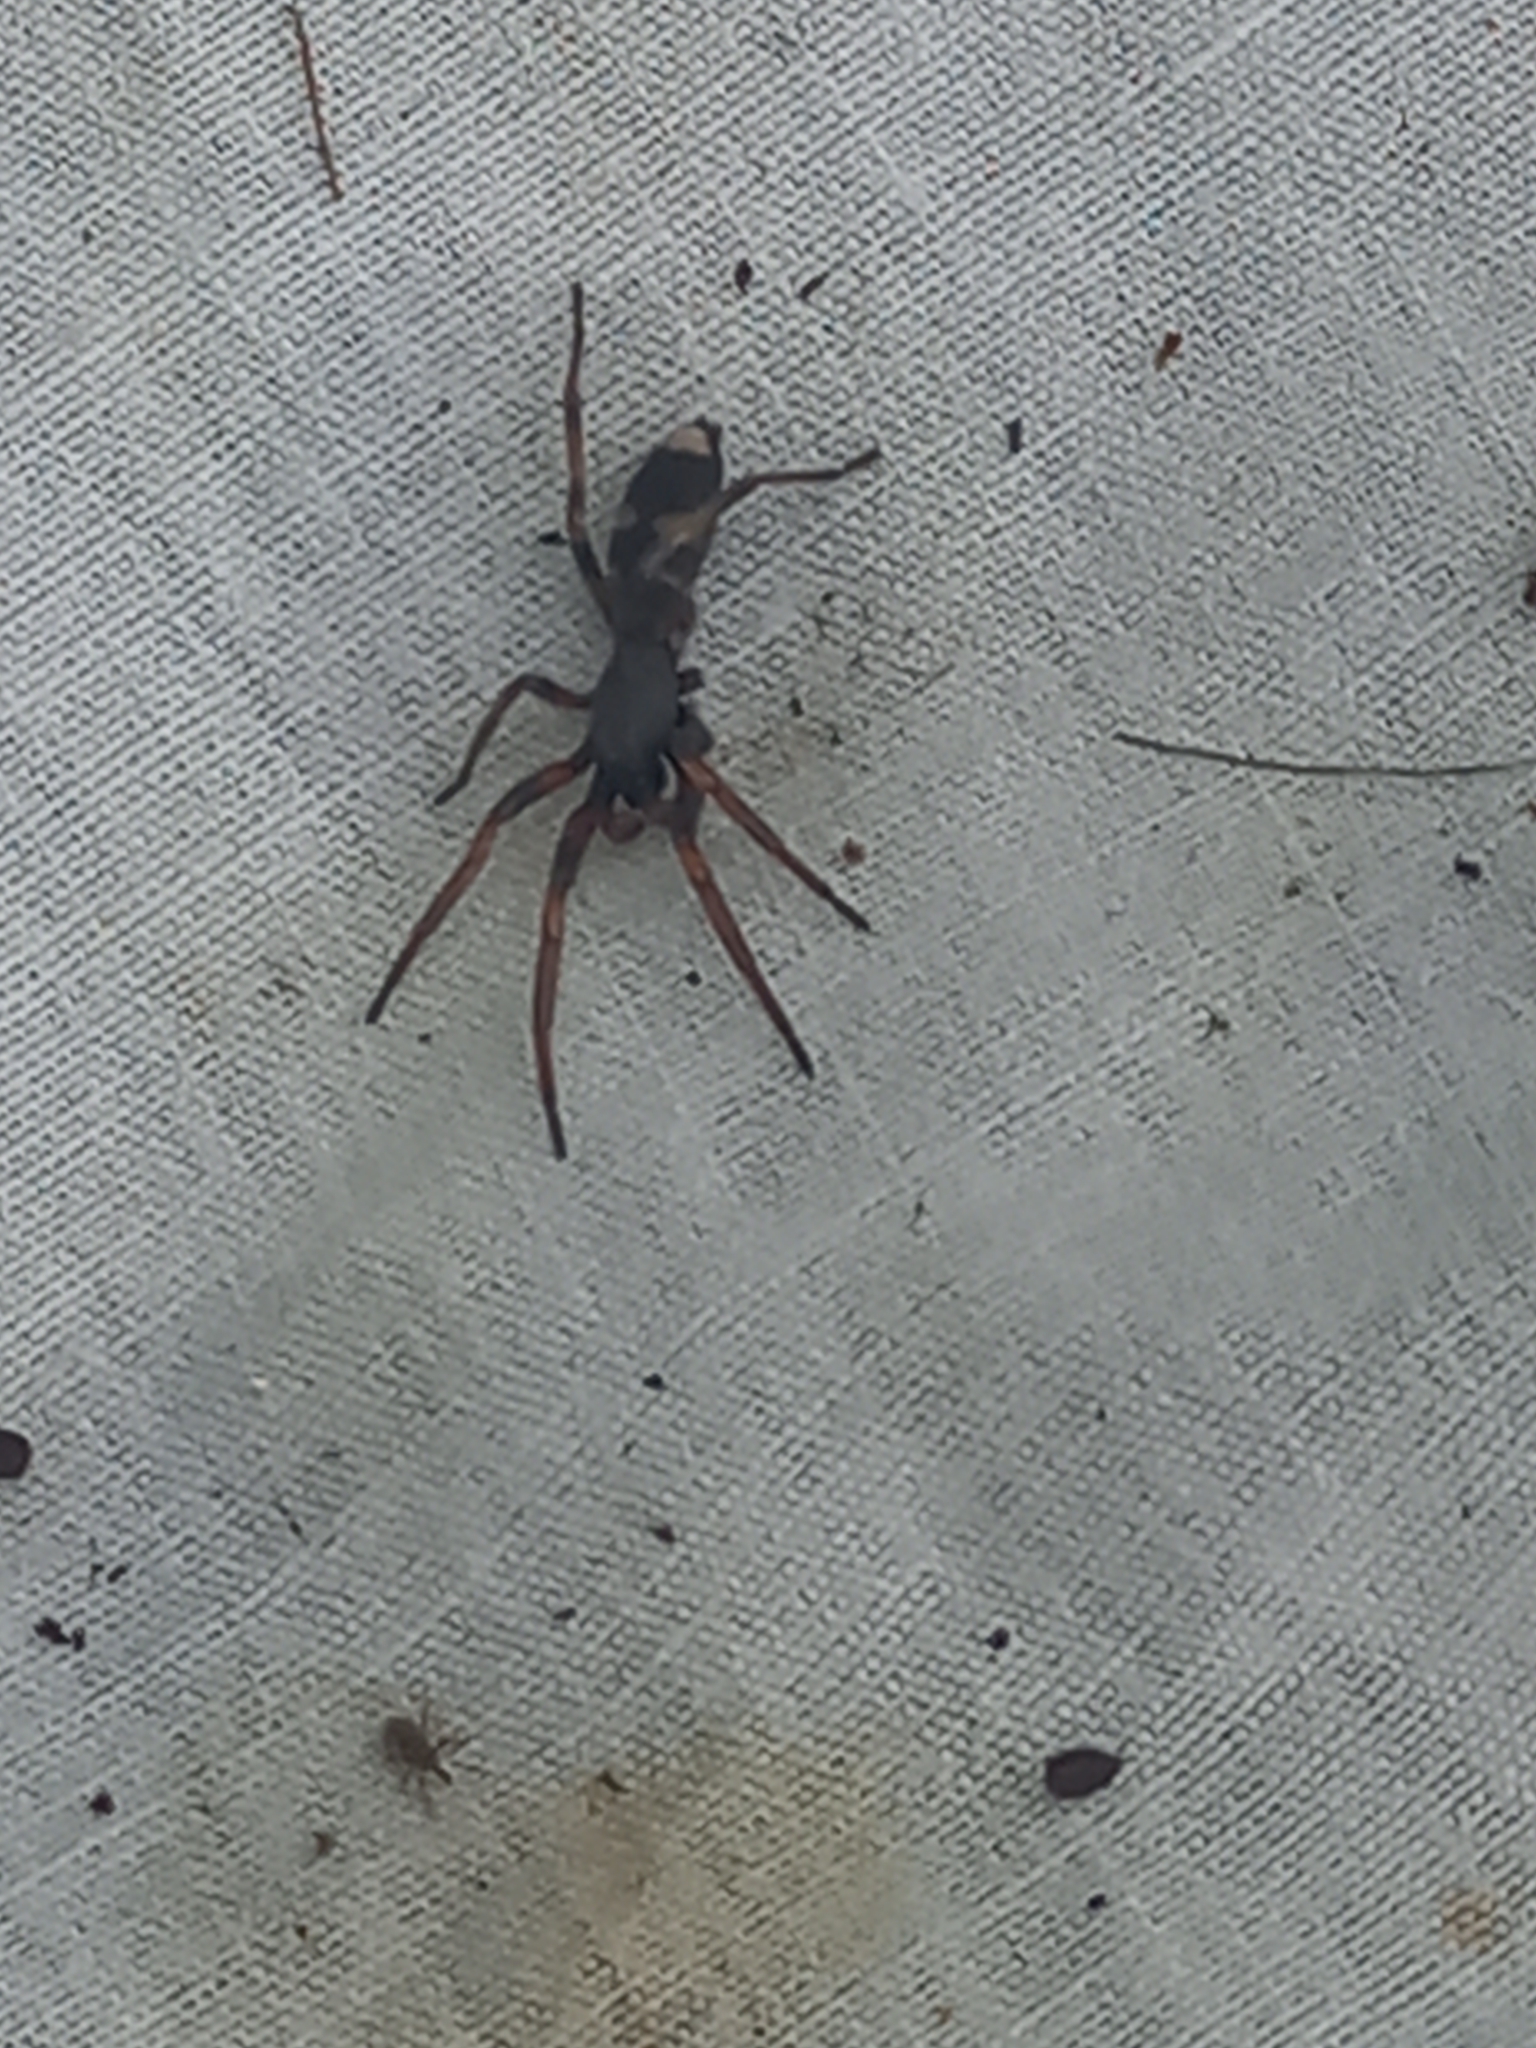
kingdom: Animalia
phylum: Arthropoda
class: Arachnida
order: Araneae
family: Lamponidae
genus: Lampona
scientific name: Lampona cylindrata
